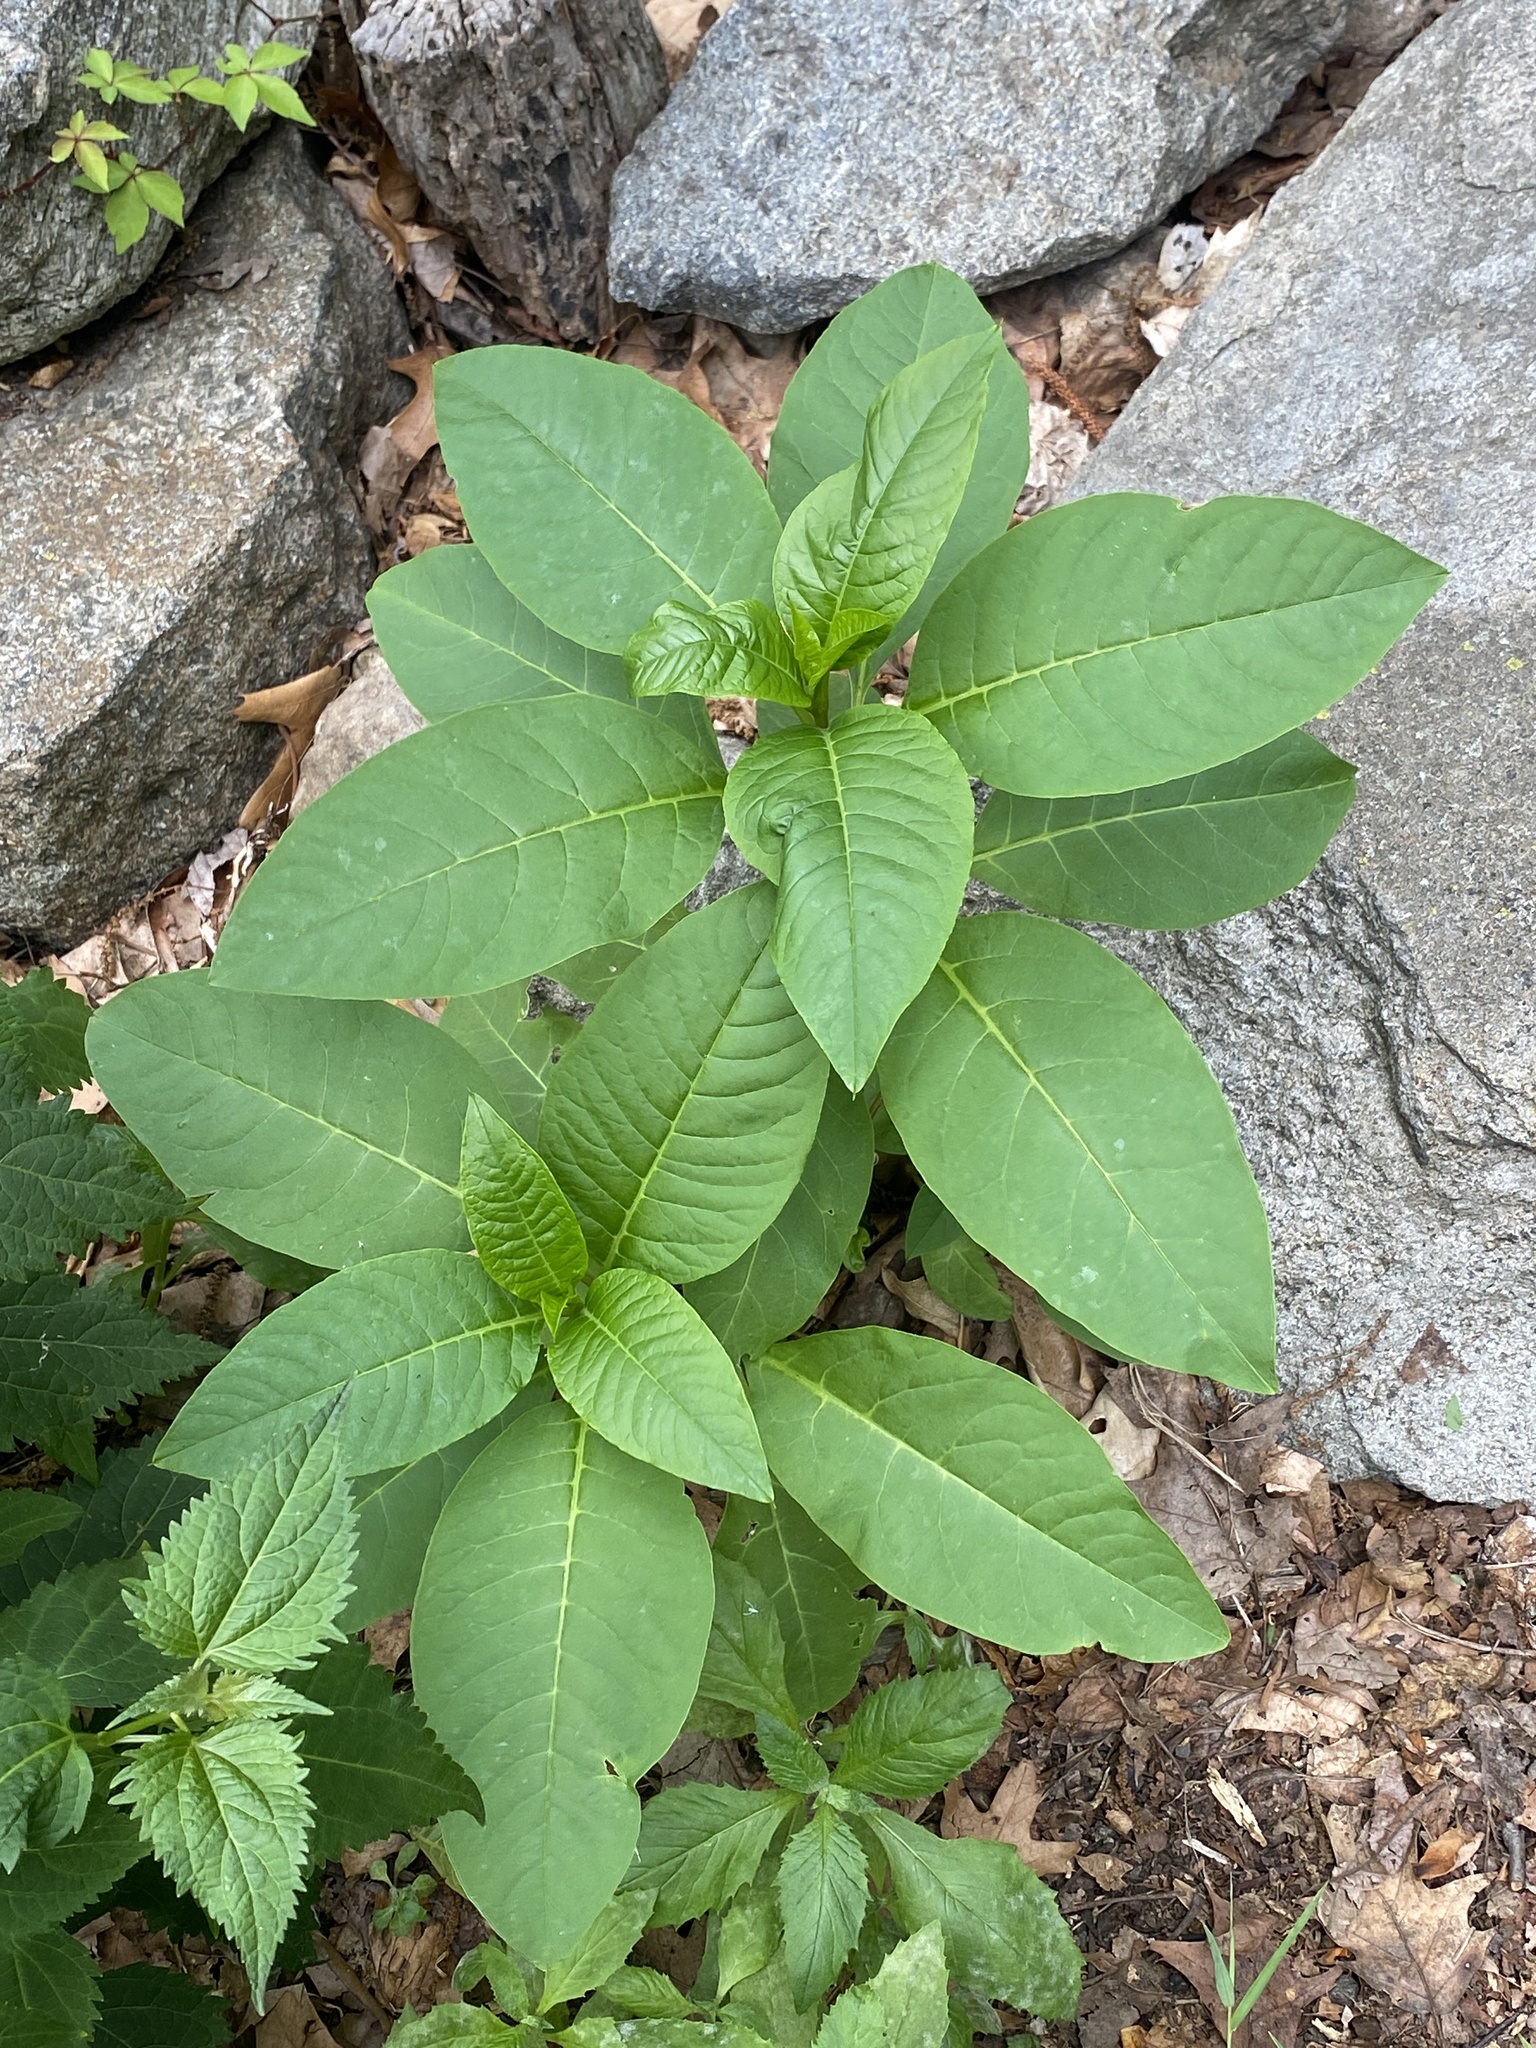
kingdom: Plantae
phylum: Tracheophyta
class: Magnoliopsida
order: Caryophyllales
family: Phytolaccaceae
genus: Phytolacca
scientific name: Phytolacca americana
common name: American pokeweed
